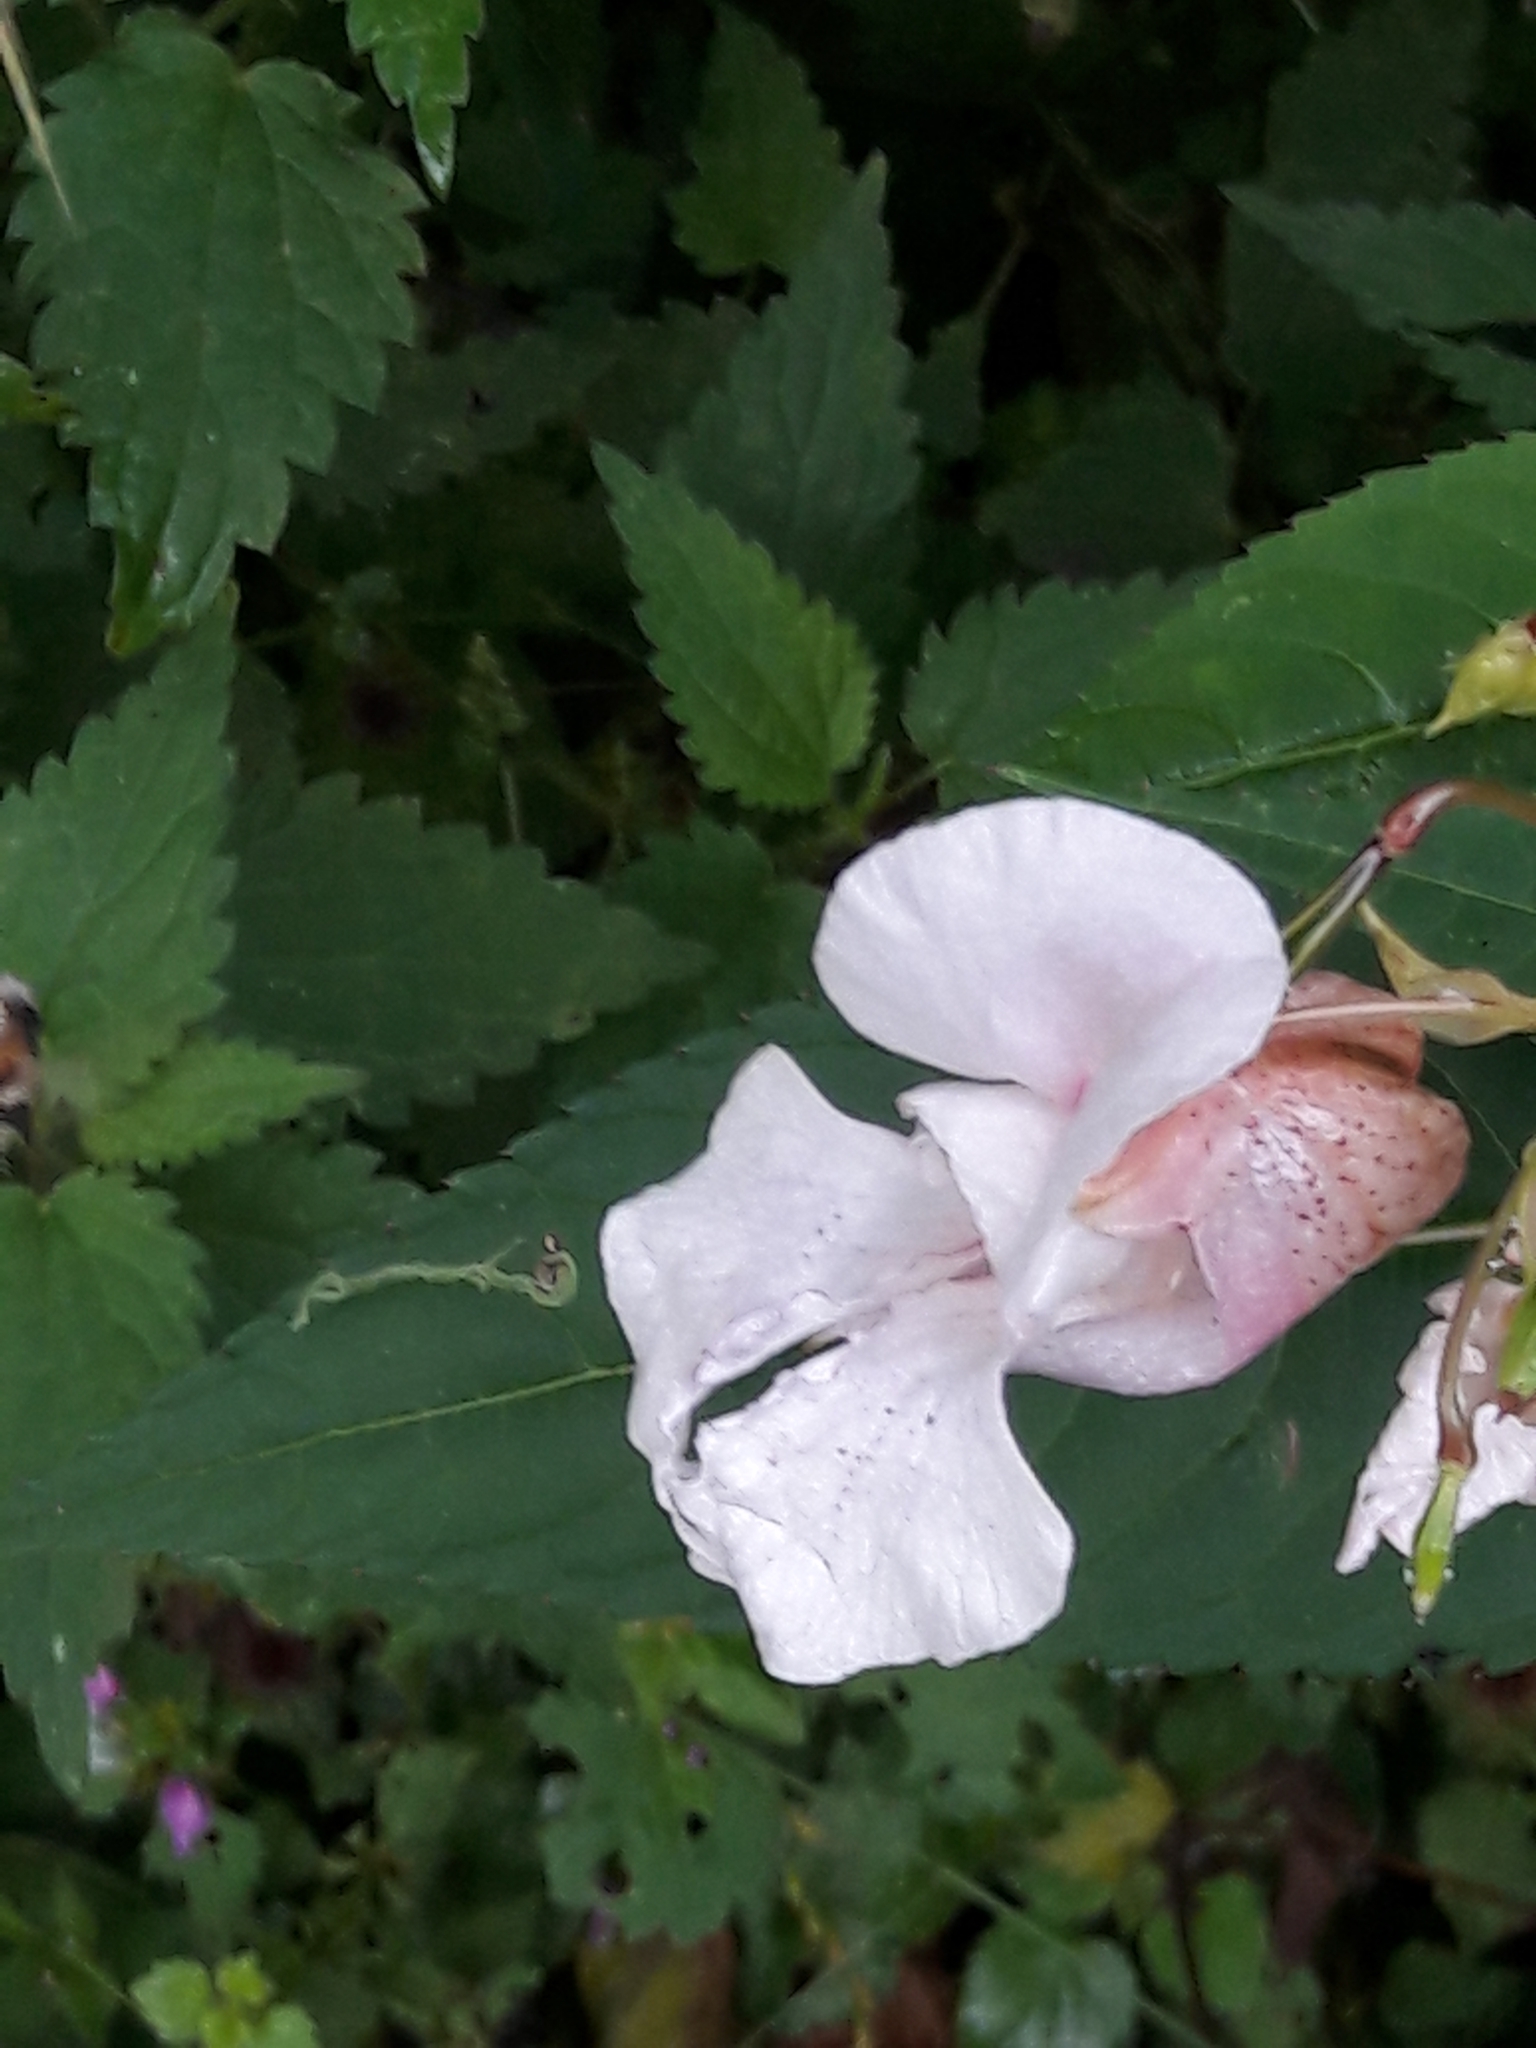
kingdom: Plantae
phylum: Tracheophyta
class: Magnoliopsida
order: Ericales
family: Balsaminaceae
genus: Impatiens
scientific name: Impatiens glandulifera
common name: Himalayan balsam
